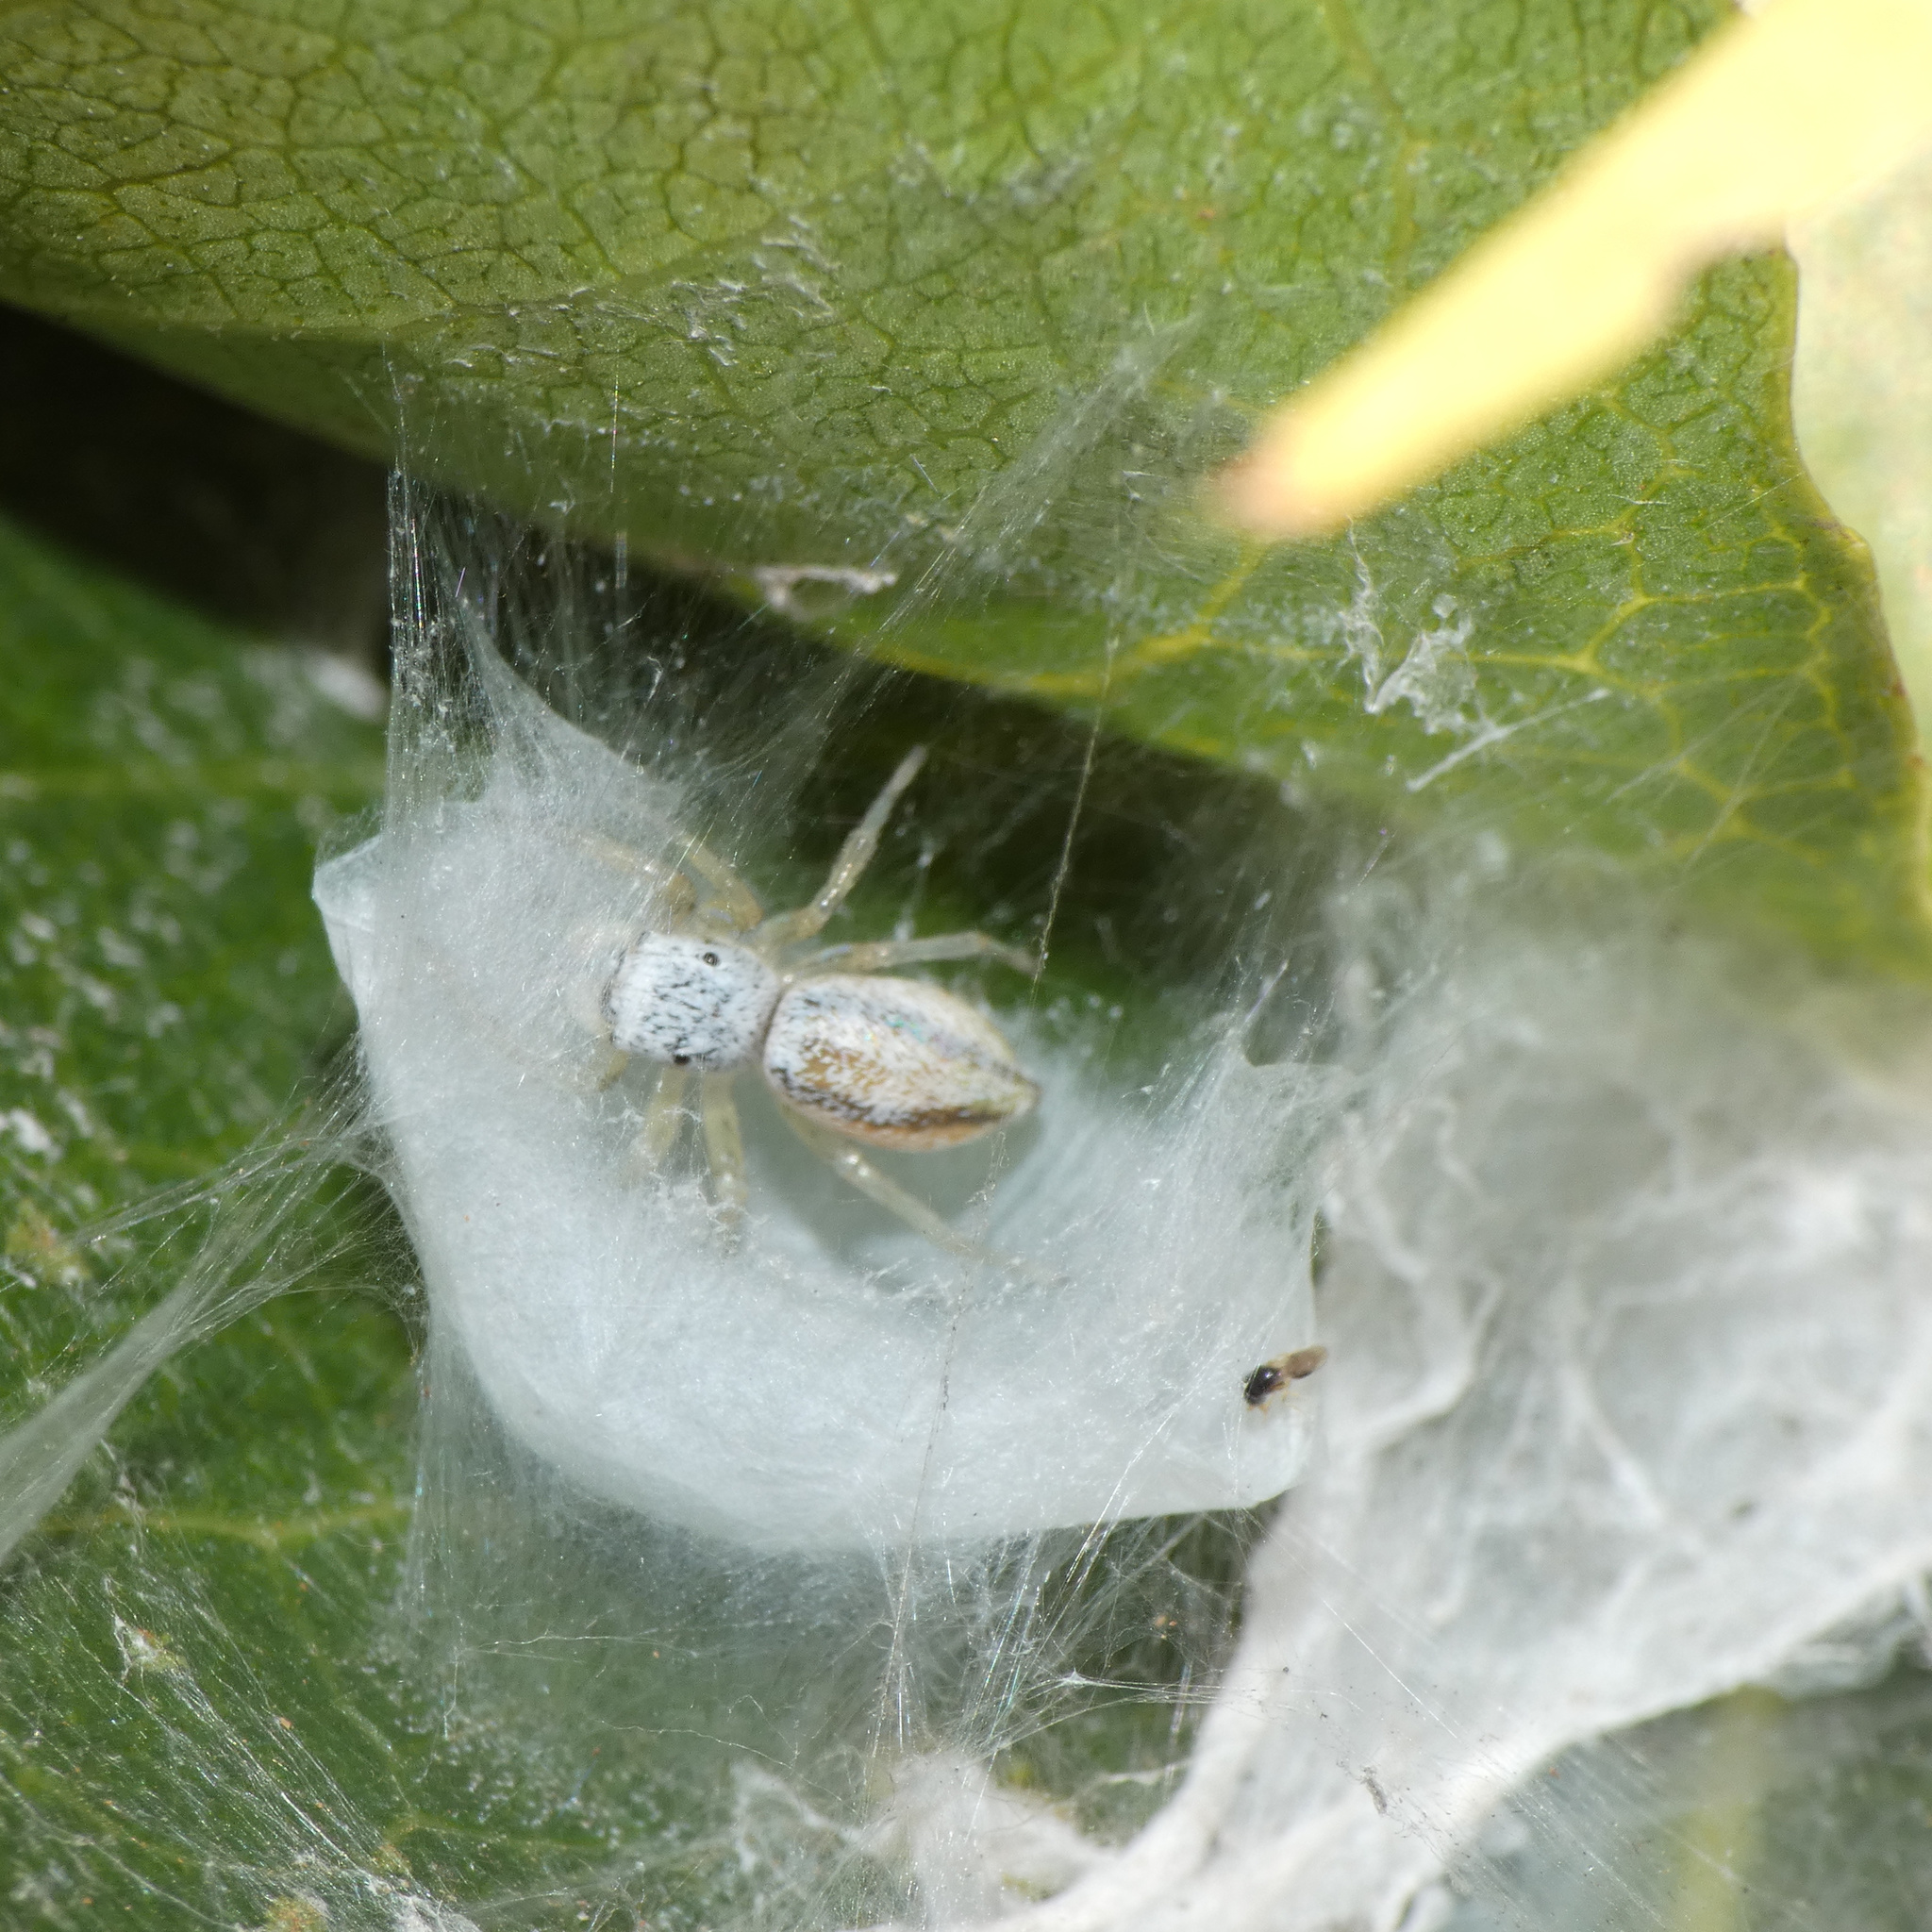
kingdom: Animalia
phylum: Arthropoda
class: Arachnida
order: Araneae
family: Salticidae
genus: Phintella
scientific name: Phintella lajuma
